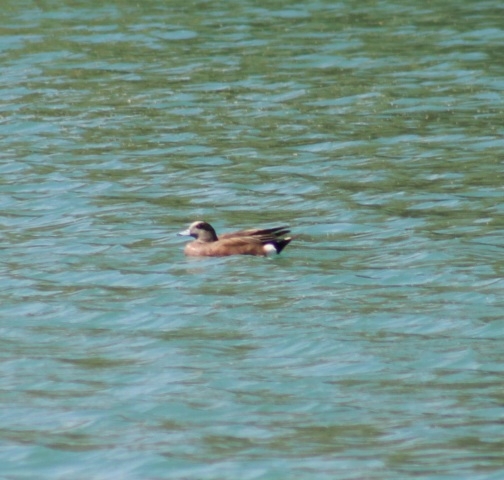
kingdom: Animalia
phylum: Chordata
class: Aves
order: Anseriformes
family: Anatidae
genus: Mareca
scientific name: Mareca americana
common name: American wigeon
